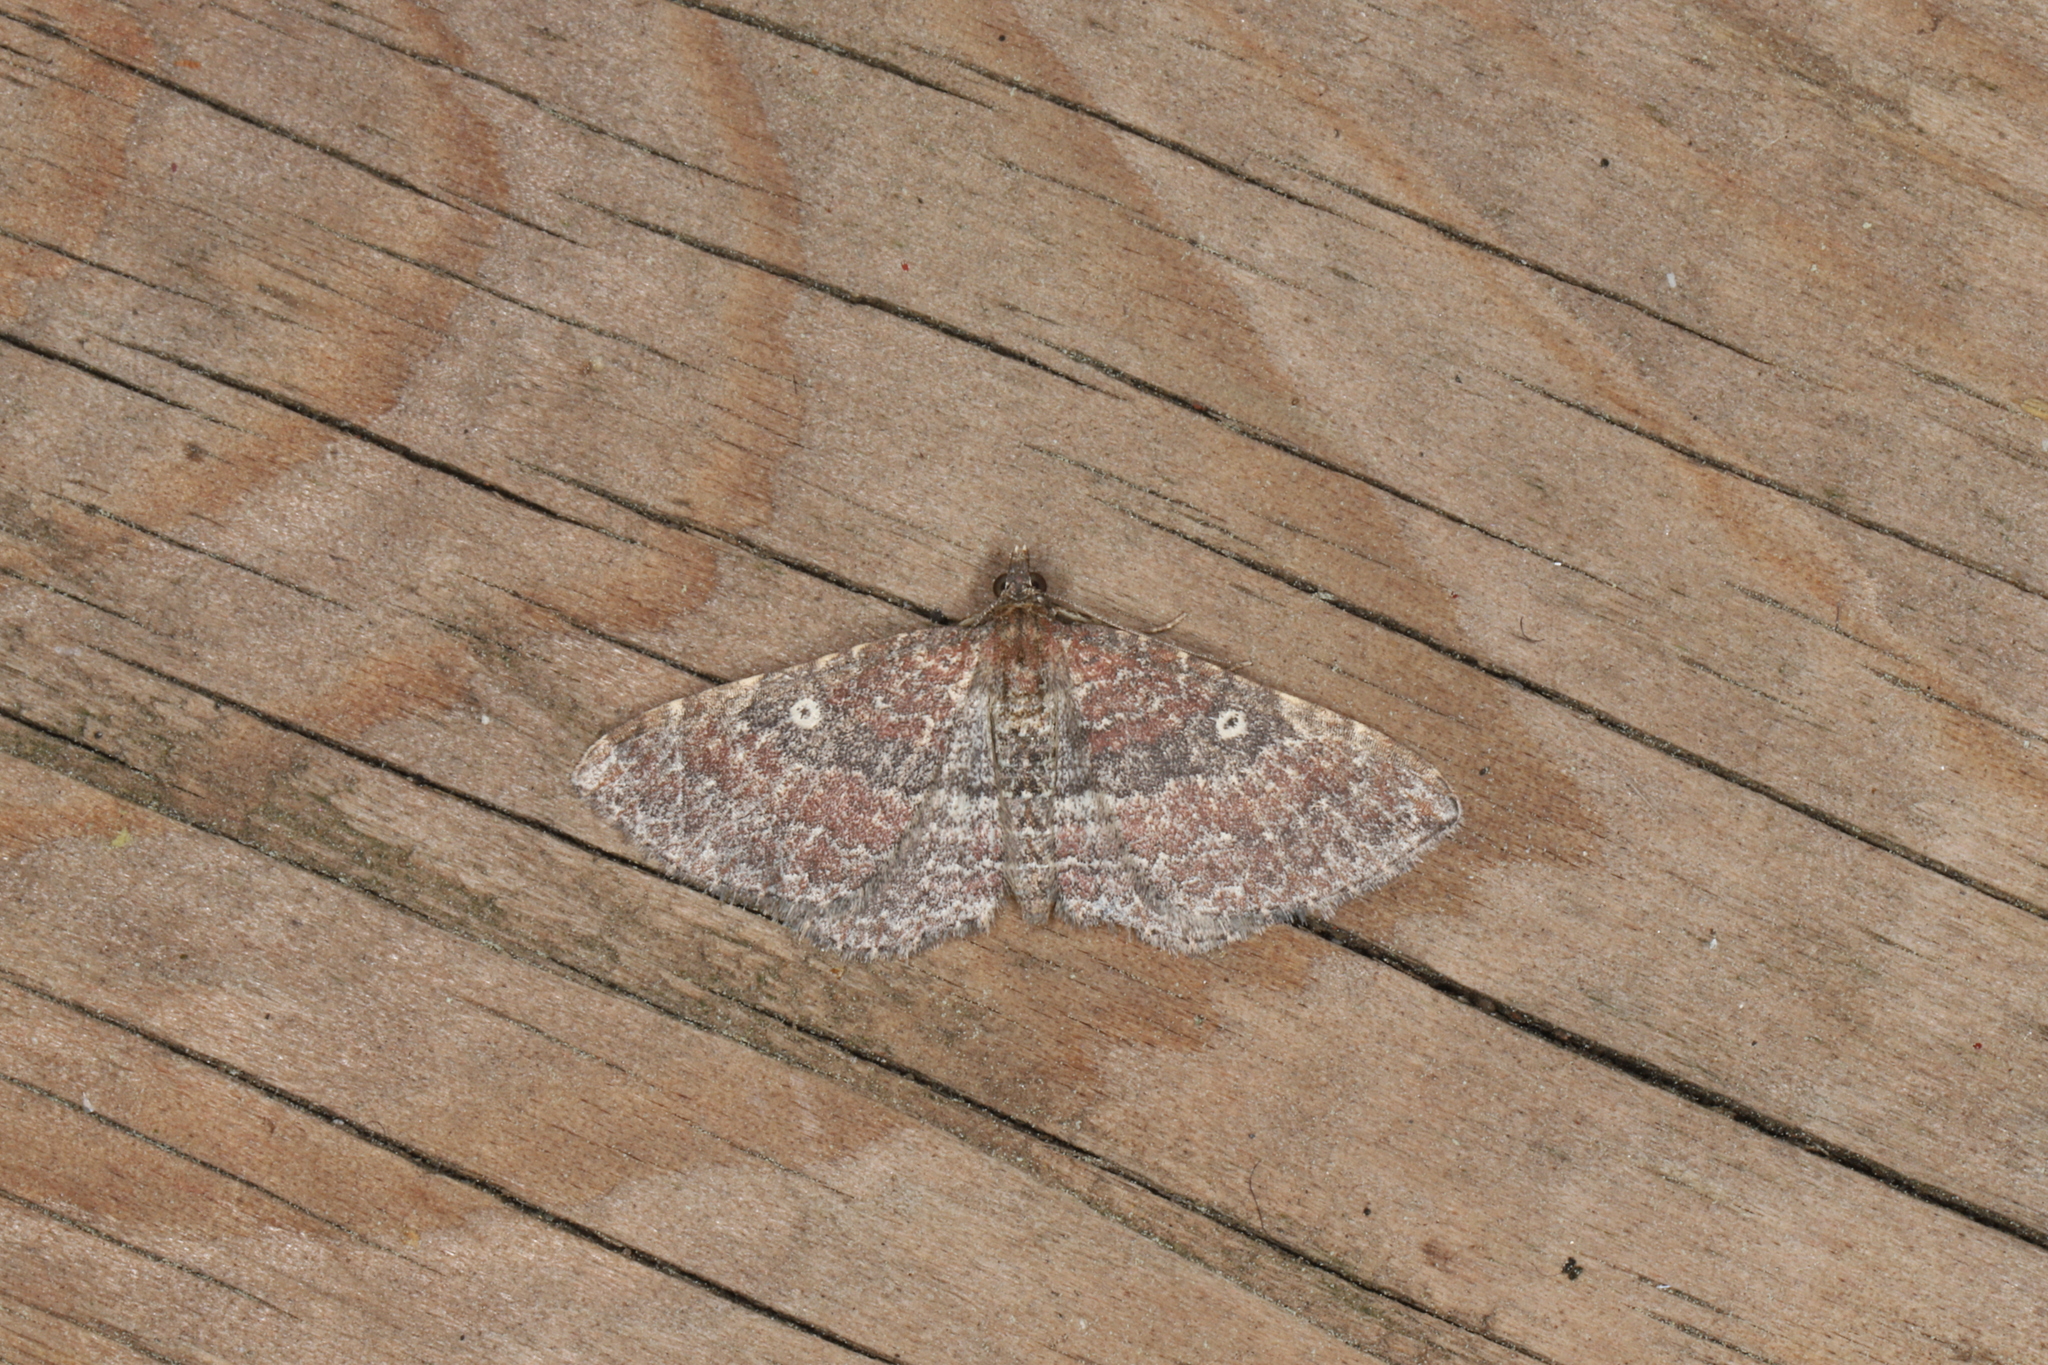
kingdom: Animalia
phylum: Arthropoda
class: Insecta
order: Lepidoptera
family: Geometridae
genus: Orthonama
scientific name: Orthonama obstipata
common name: The gem
